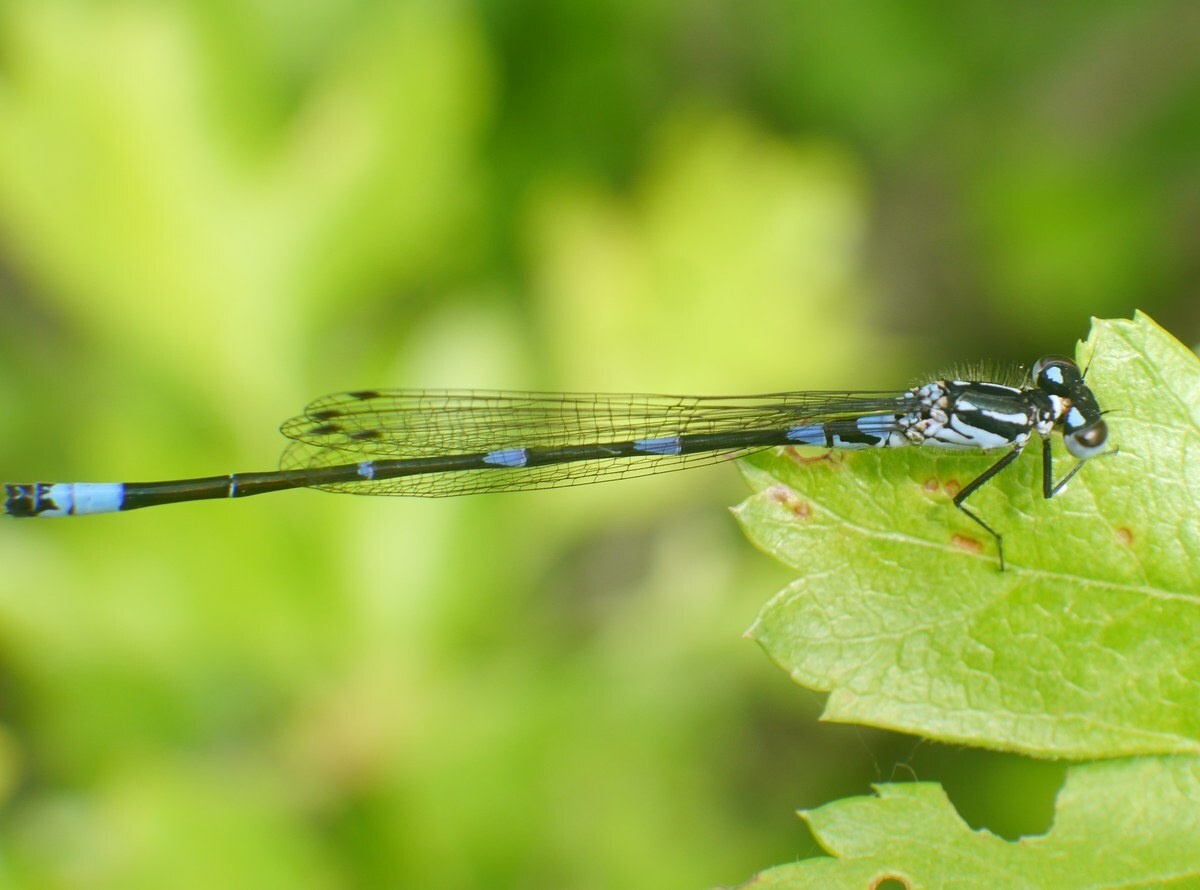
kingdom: Animalia
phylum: Arthropoda
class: Insecta
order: Odonata
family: Coenagrionidae
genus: Coenagrion
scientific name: Coenagrion pulchellum
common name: Variable bluet
